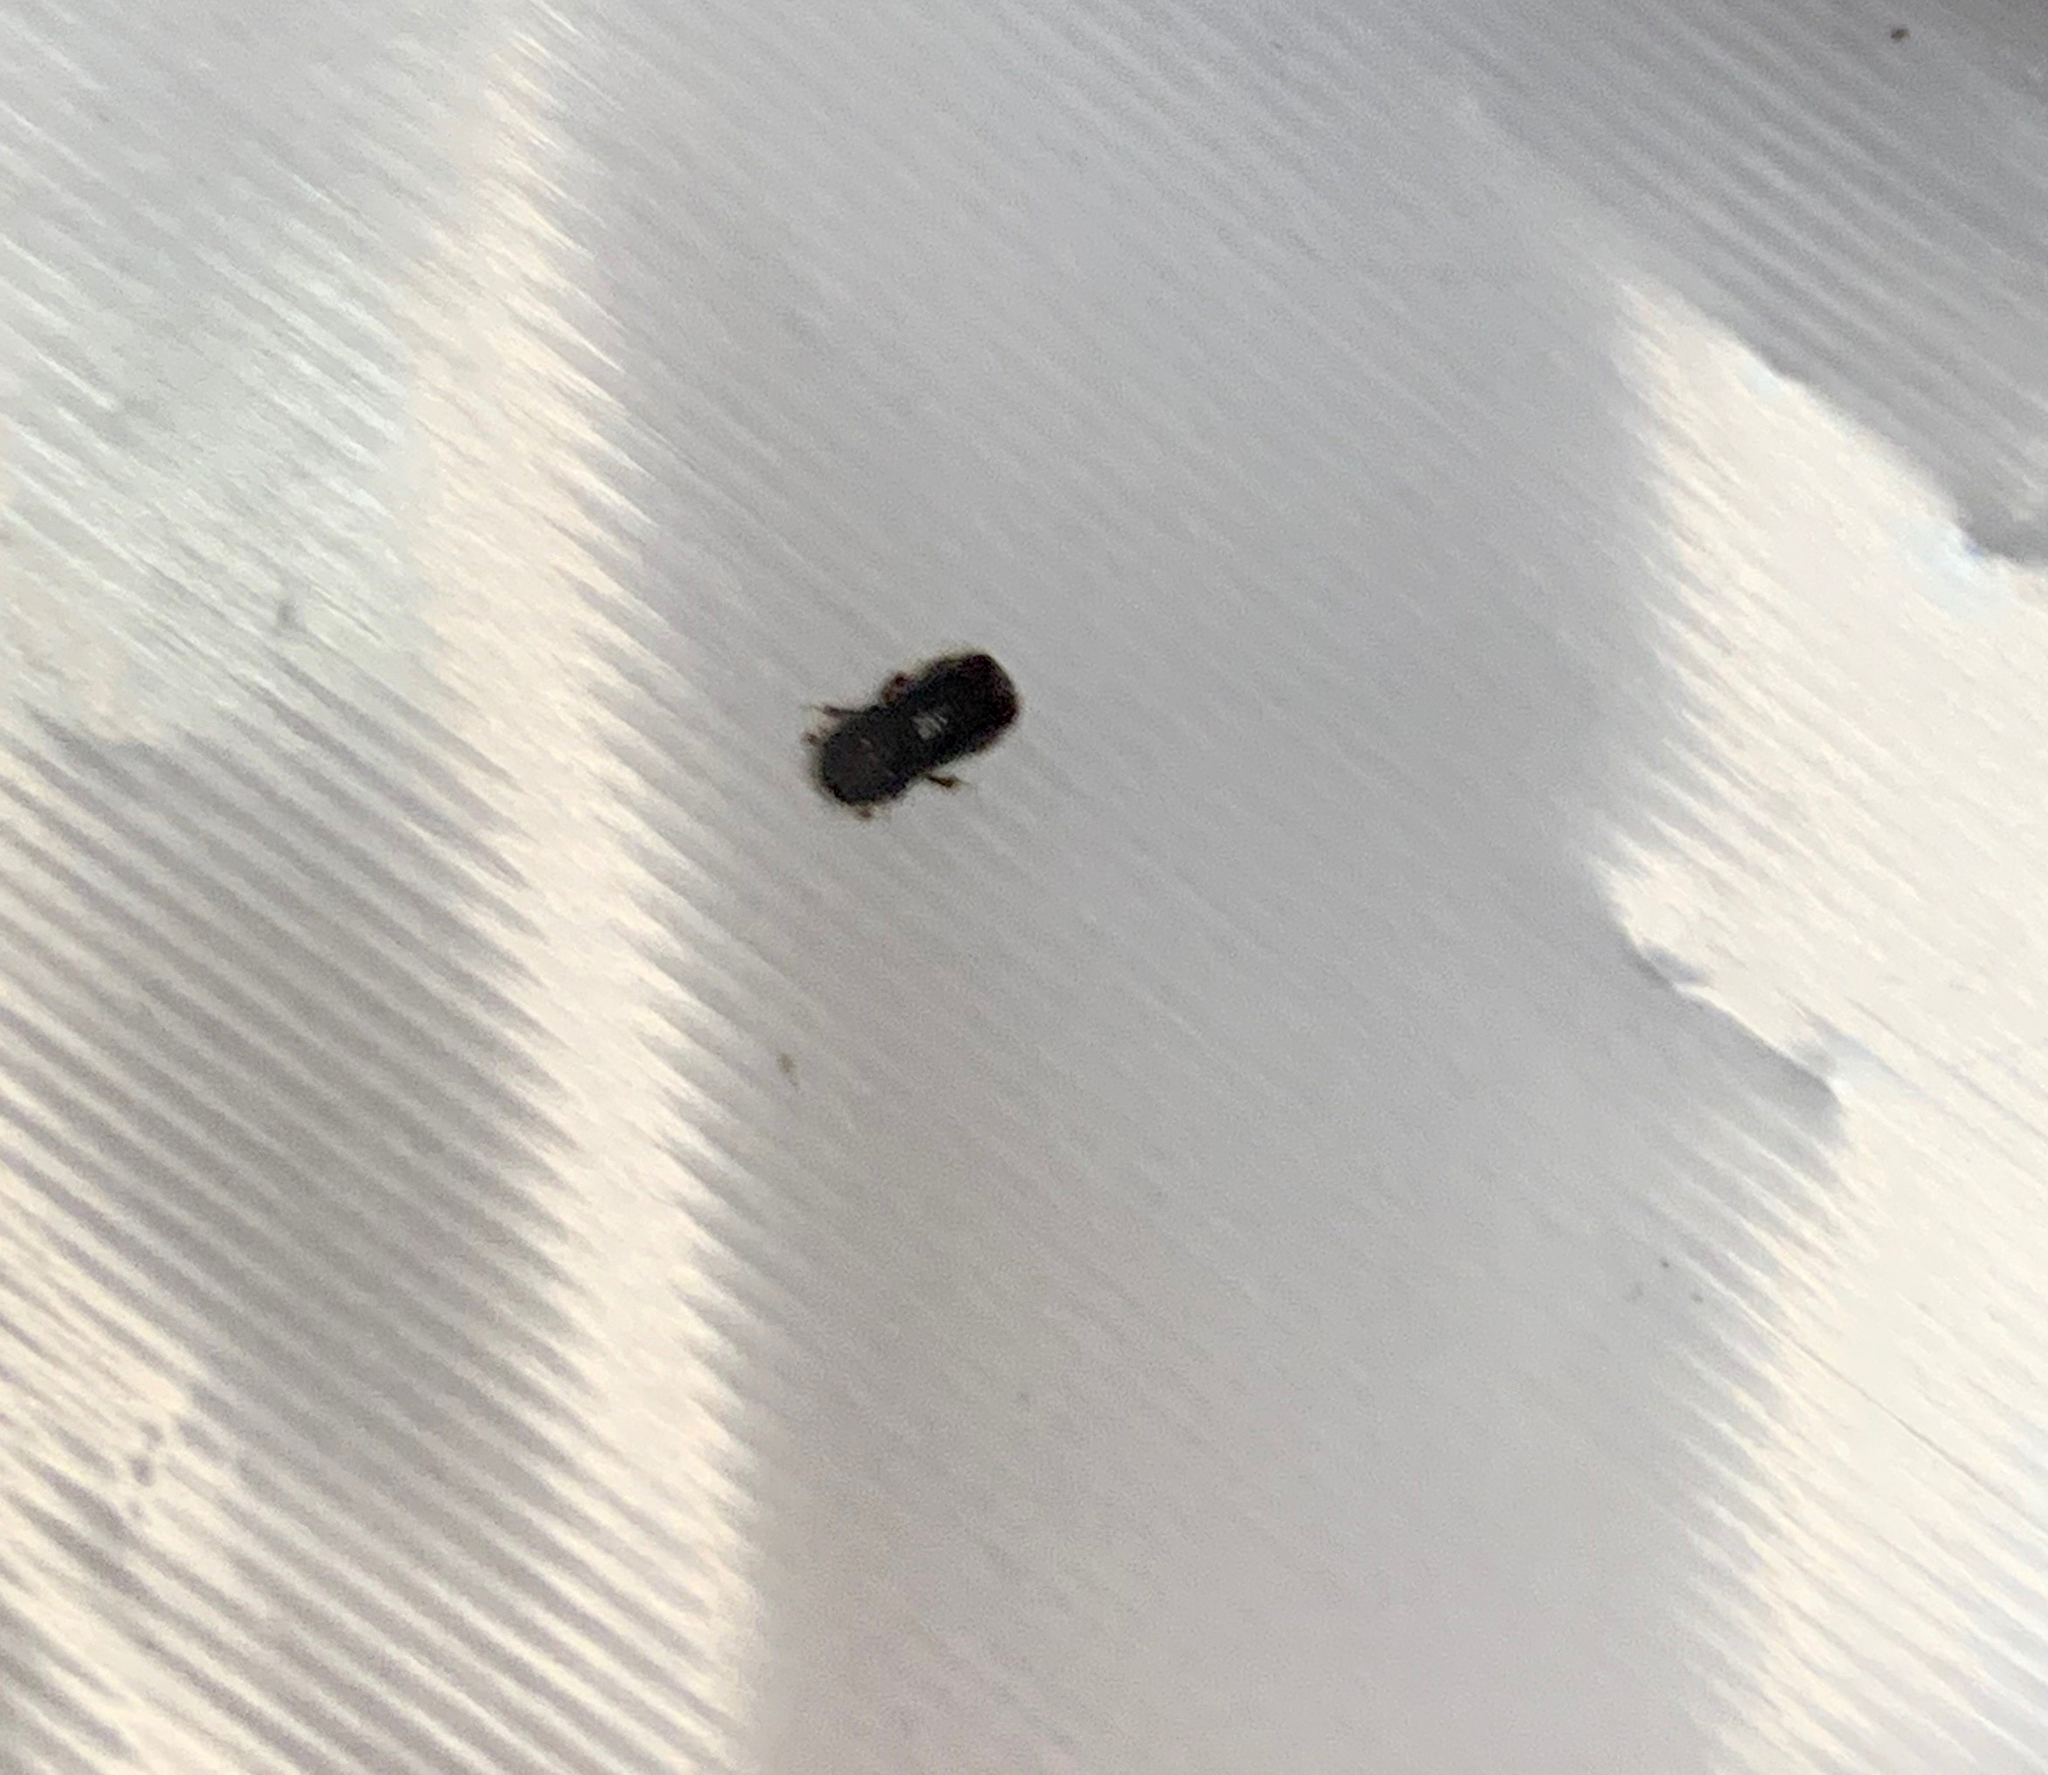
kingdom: Animalia
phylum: Arthropoda
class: Insecta
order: Coleoptera
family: Curculionidae
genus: Xyleborus
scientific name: Xyleborus atratus
